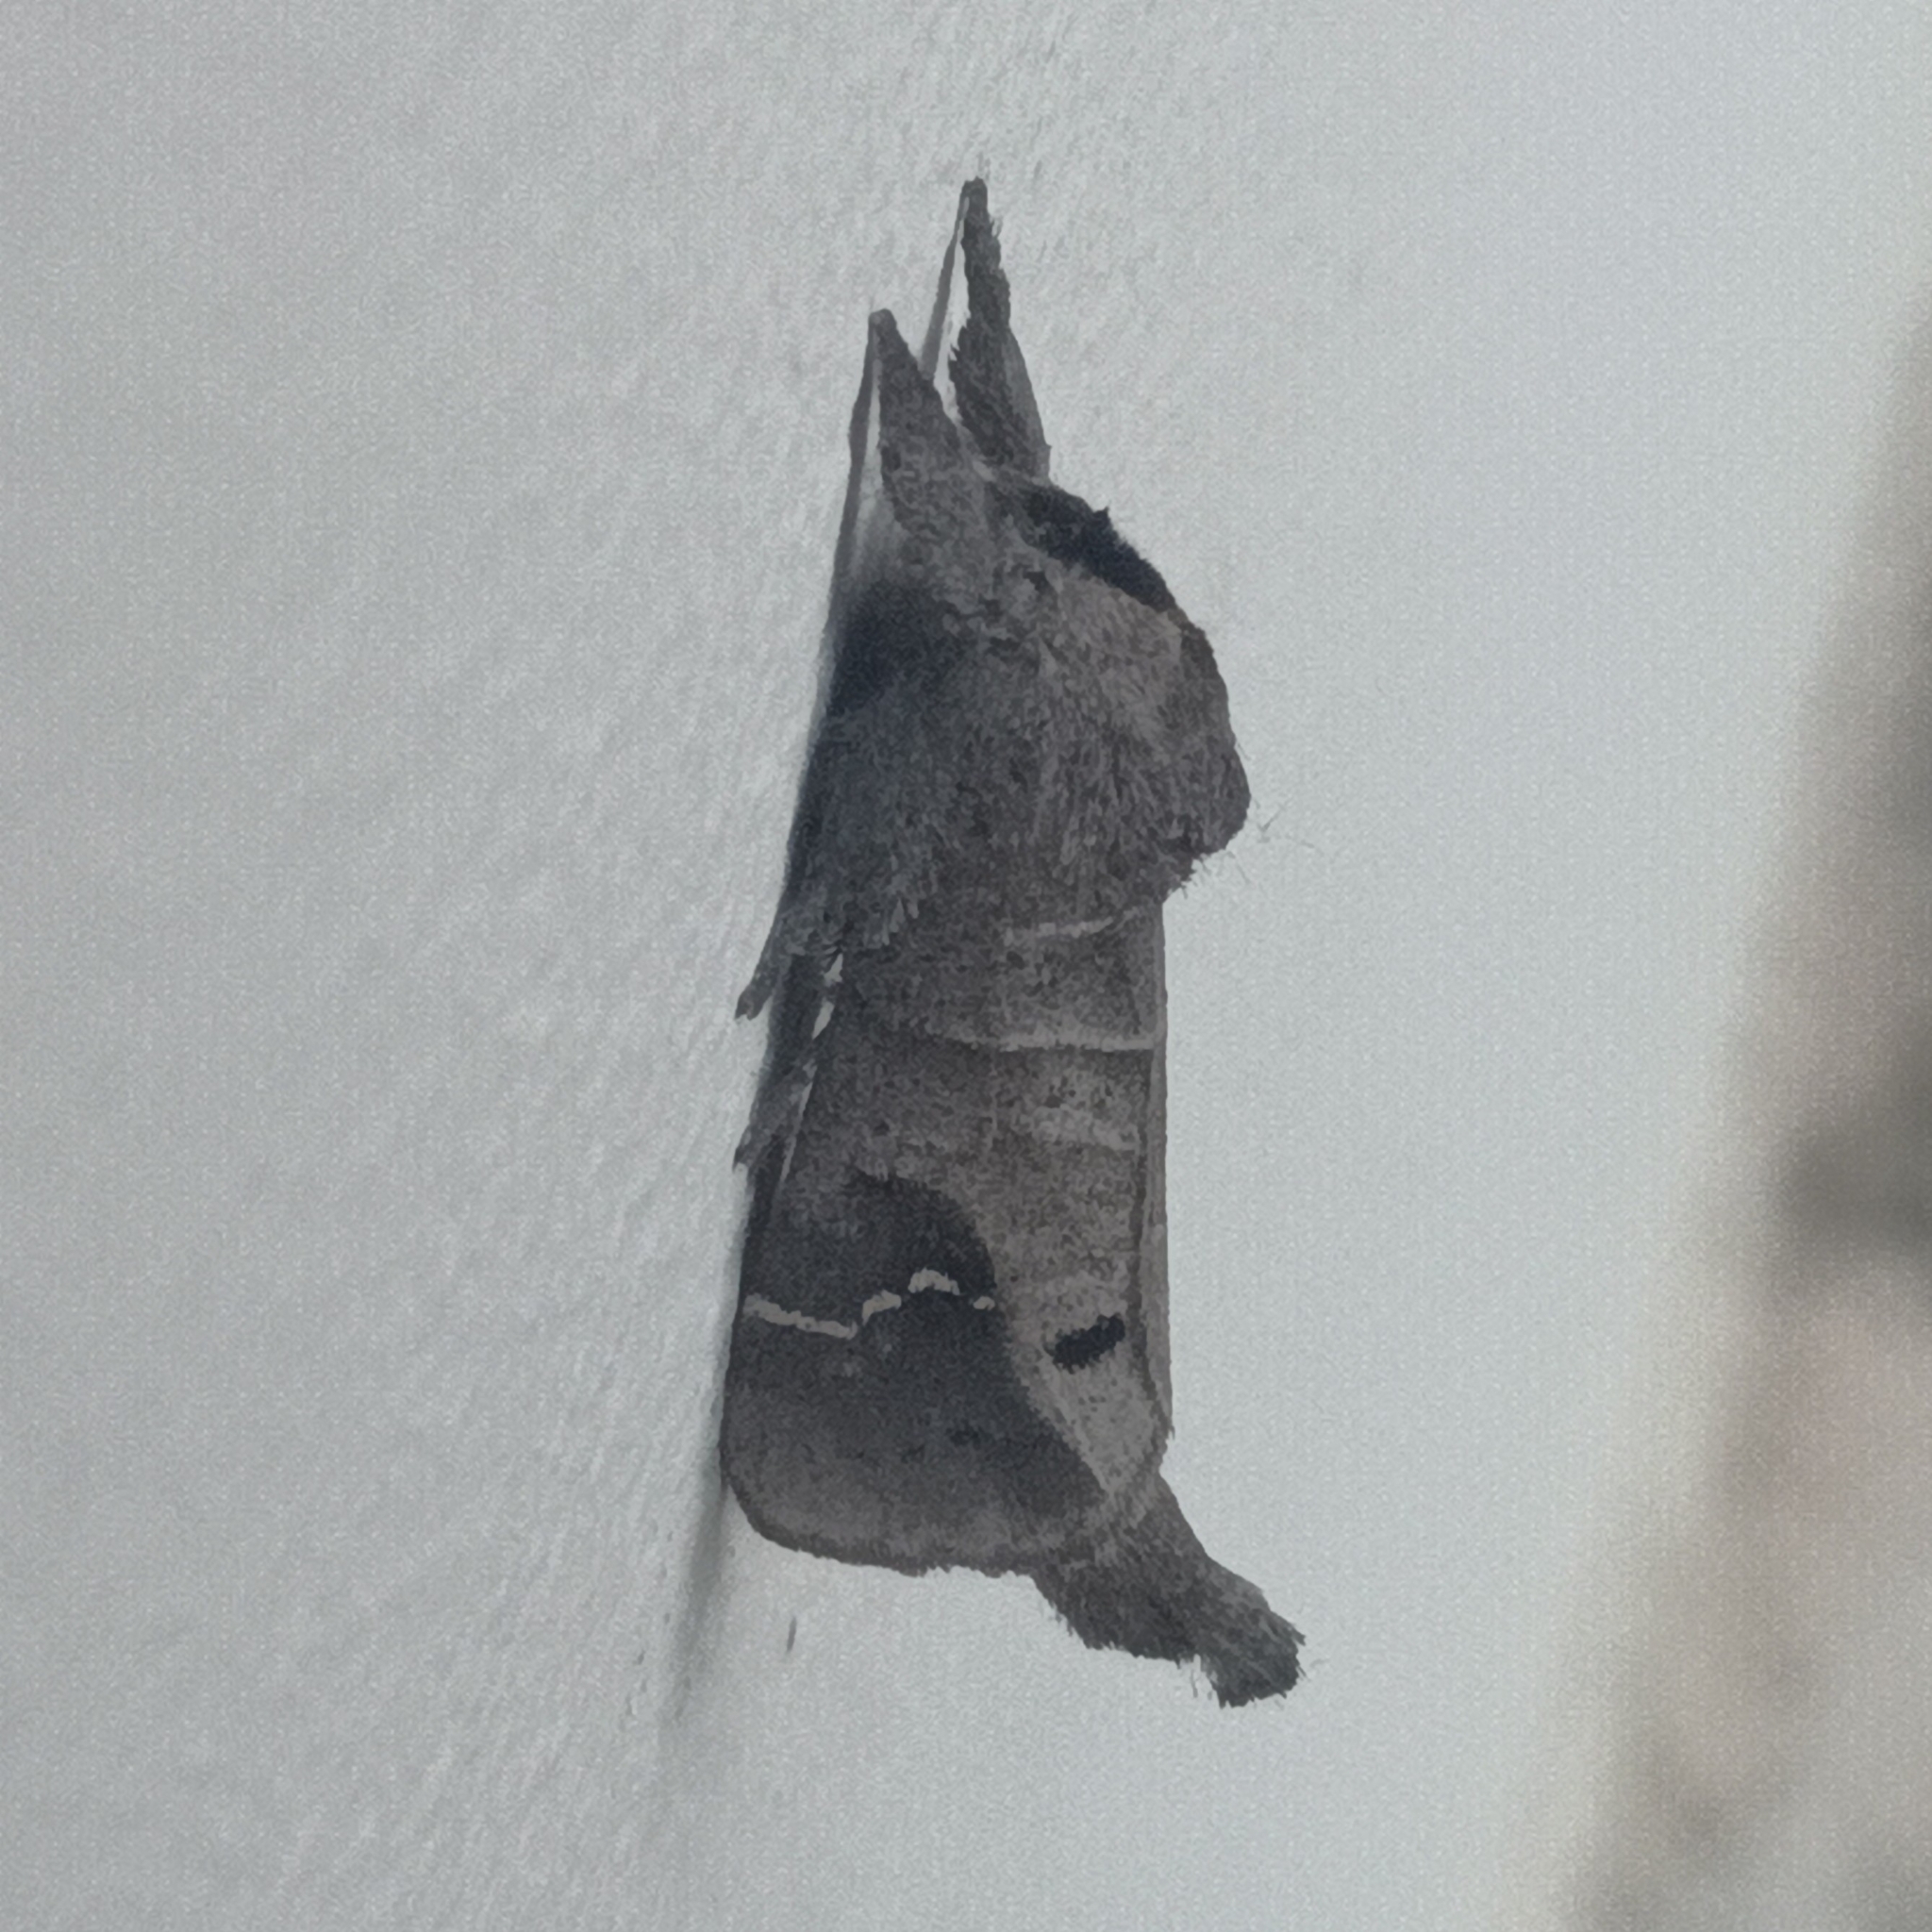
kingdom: Animalia
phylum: Arthropoda
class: Insecta
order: Lepidoptera
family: Notodontidae
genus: Clostera
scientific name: Clostera anachoreta
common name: Scarce chocolate-tip
